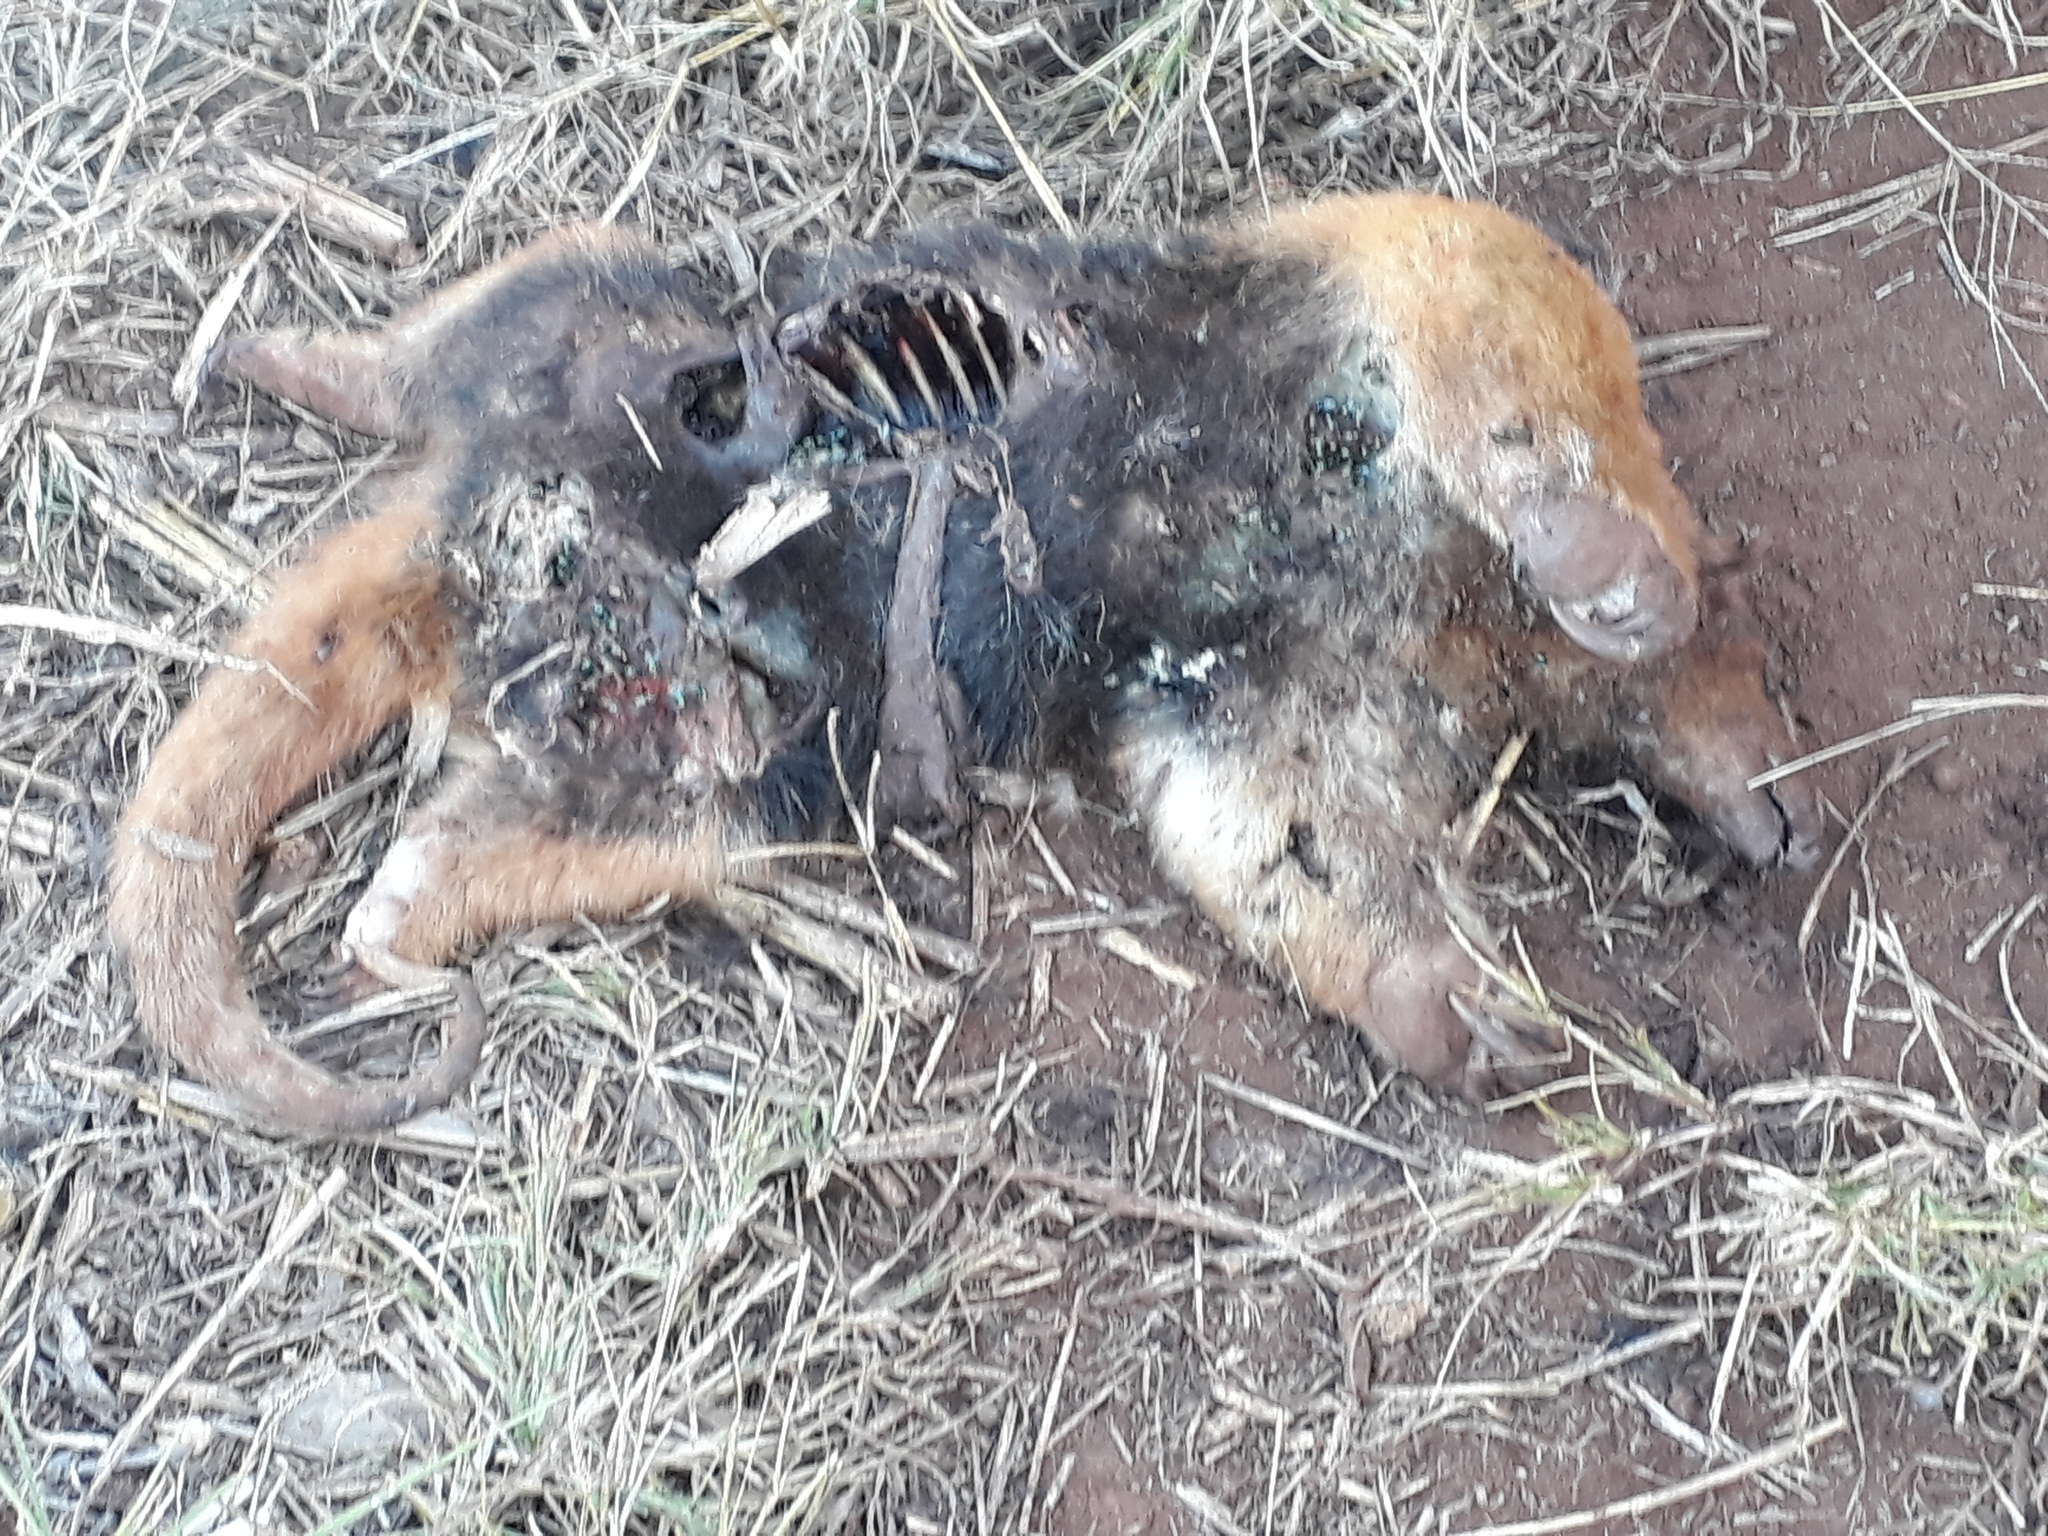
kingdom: Animalia
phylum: Chordata
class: Mammalia
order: Pilosa
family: Myrmecophagidae
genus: Tamandua
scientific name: Tamandua tetradactyla
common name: Southern tamandua
